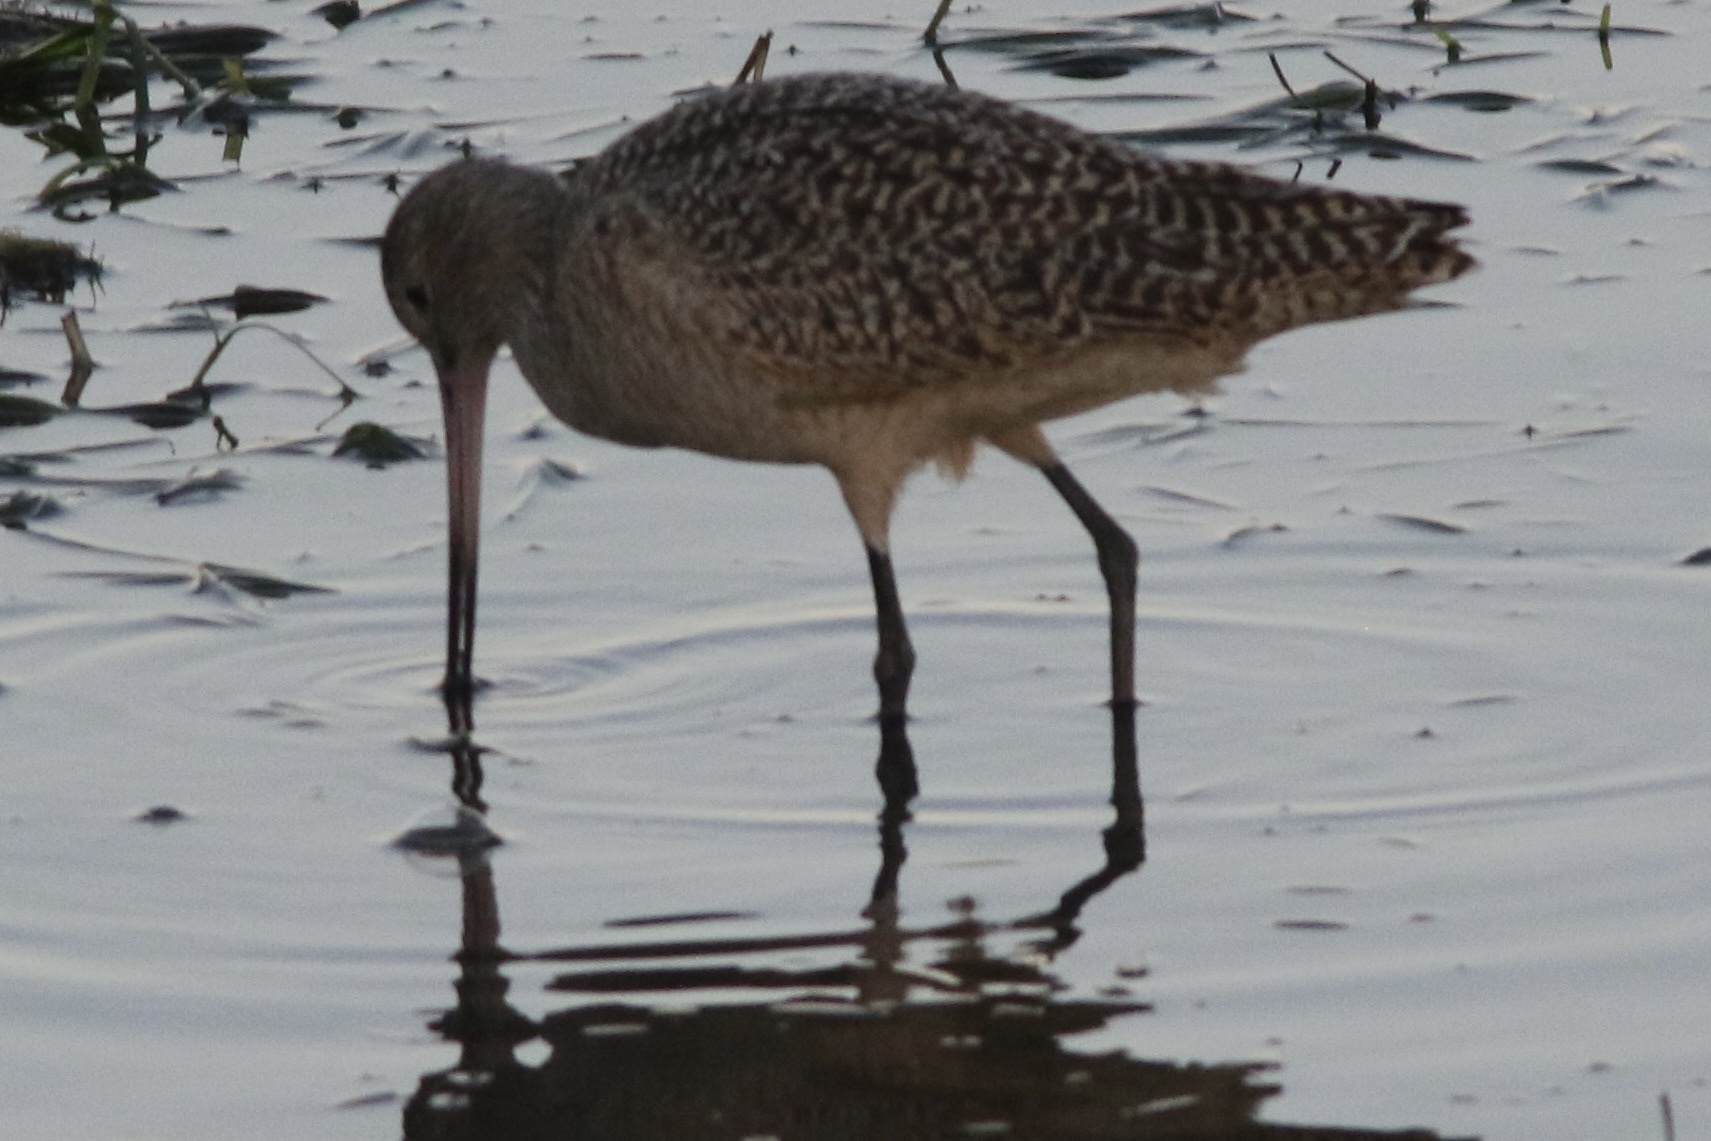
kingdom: Animalia
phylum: Chordata
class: Aves
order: Charadriiformes
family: Scolopacidae
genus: Limosa
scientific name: Limosa fedoa
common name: Marbled godwit
